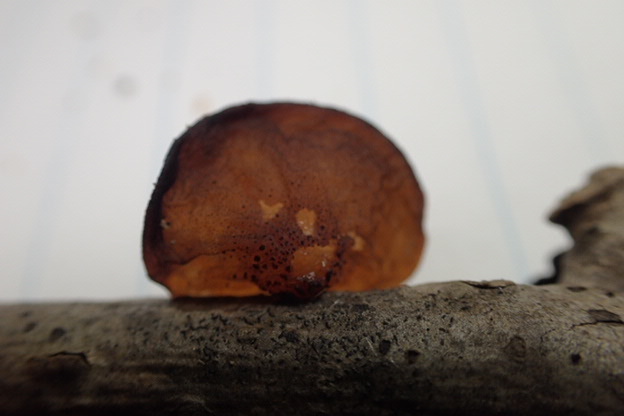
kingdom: Fungi
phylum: Basidiomycota
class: Agaricomycetes
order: Auriculariales
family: Auriculariaceae
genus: Exidia
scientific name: Exidia
